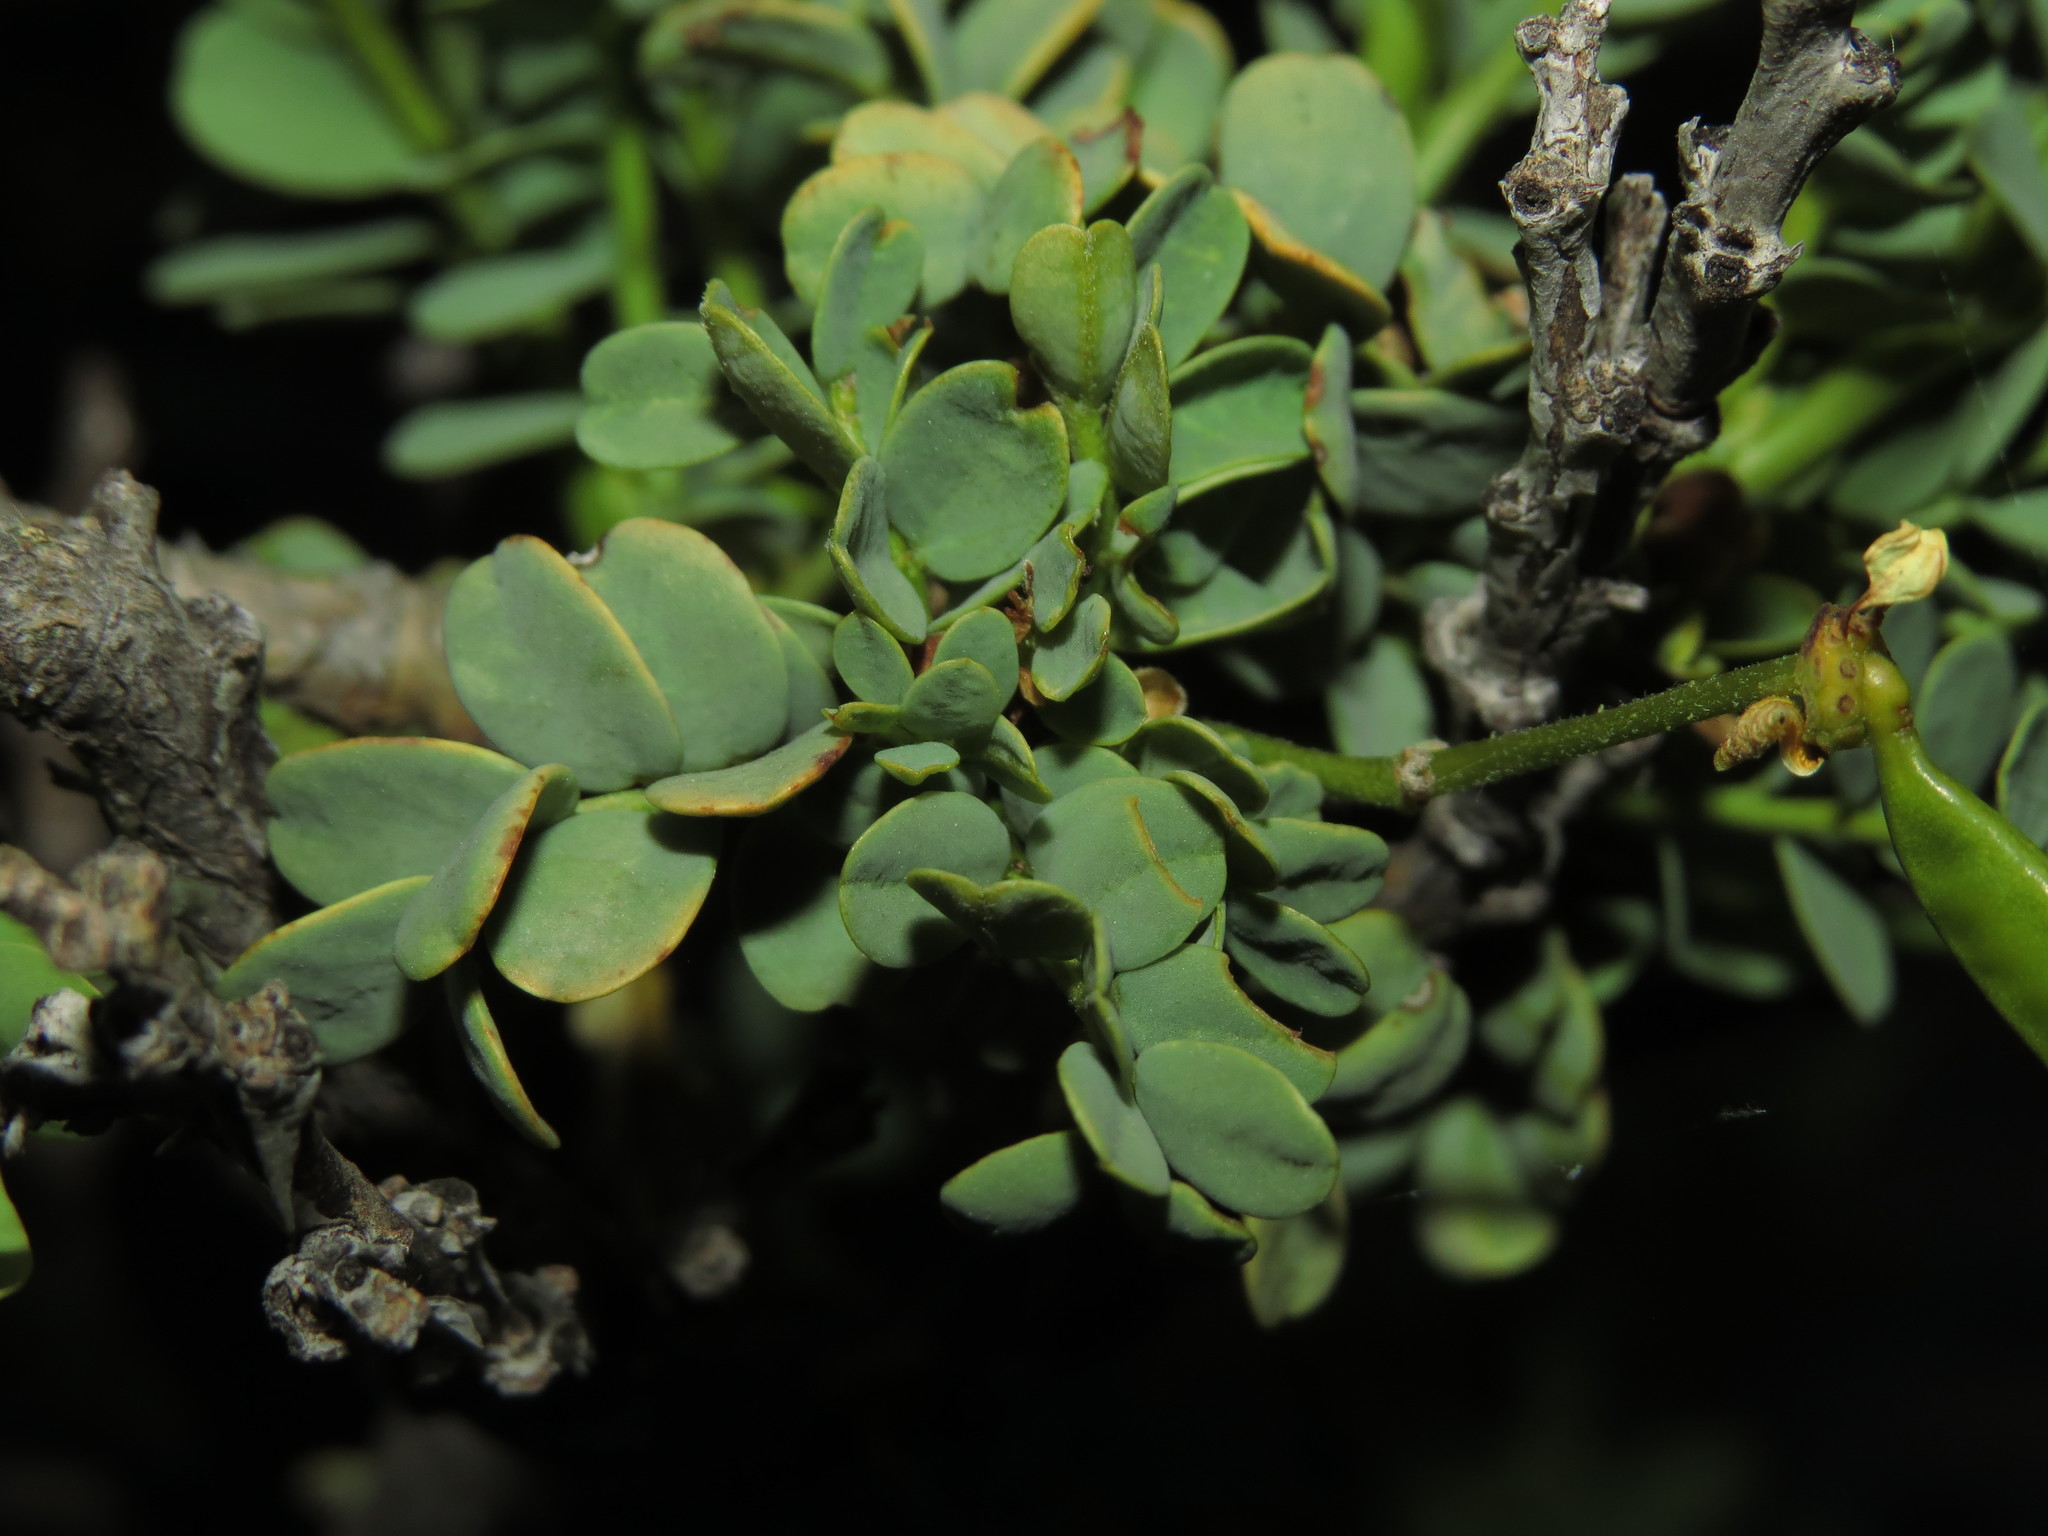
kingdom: Plantae
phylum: Tracheophyta
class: Magnoliopsida
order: Fabales
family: Fabaceae
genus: Senna
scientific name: Senna arnottiana
